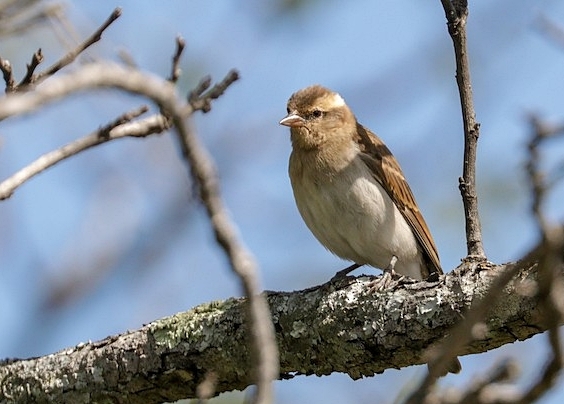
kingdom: Animalia
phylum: Chordata
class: Aves
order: Passeriformes
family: Passeridae
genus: Gymnoris
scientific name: Gymnoris superciliaris
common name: Yellow-throated petronia
